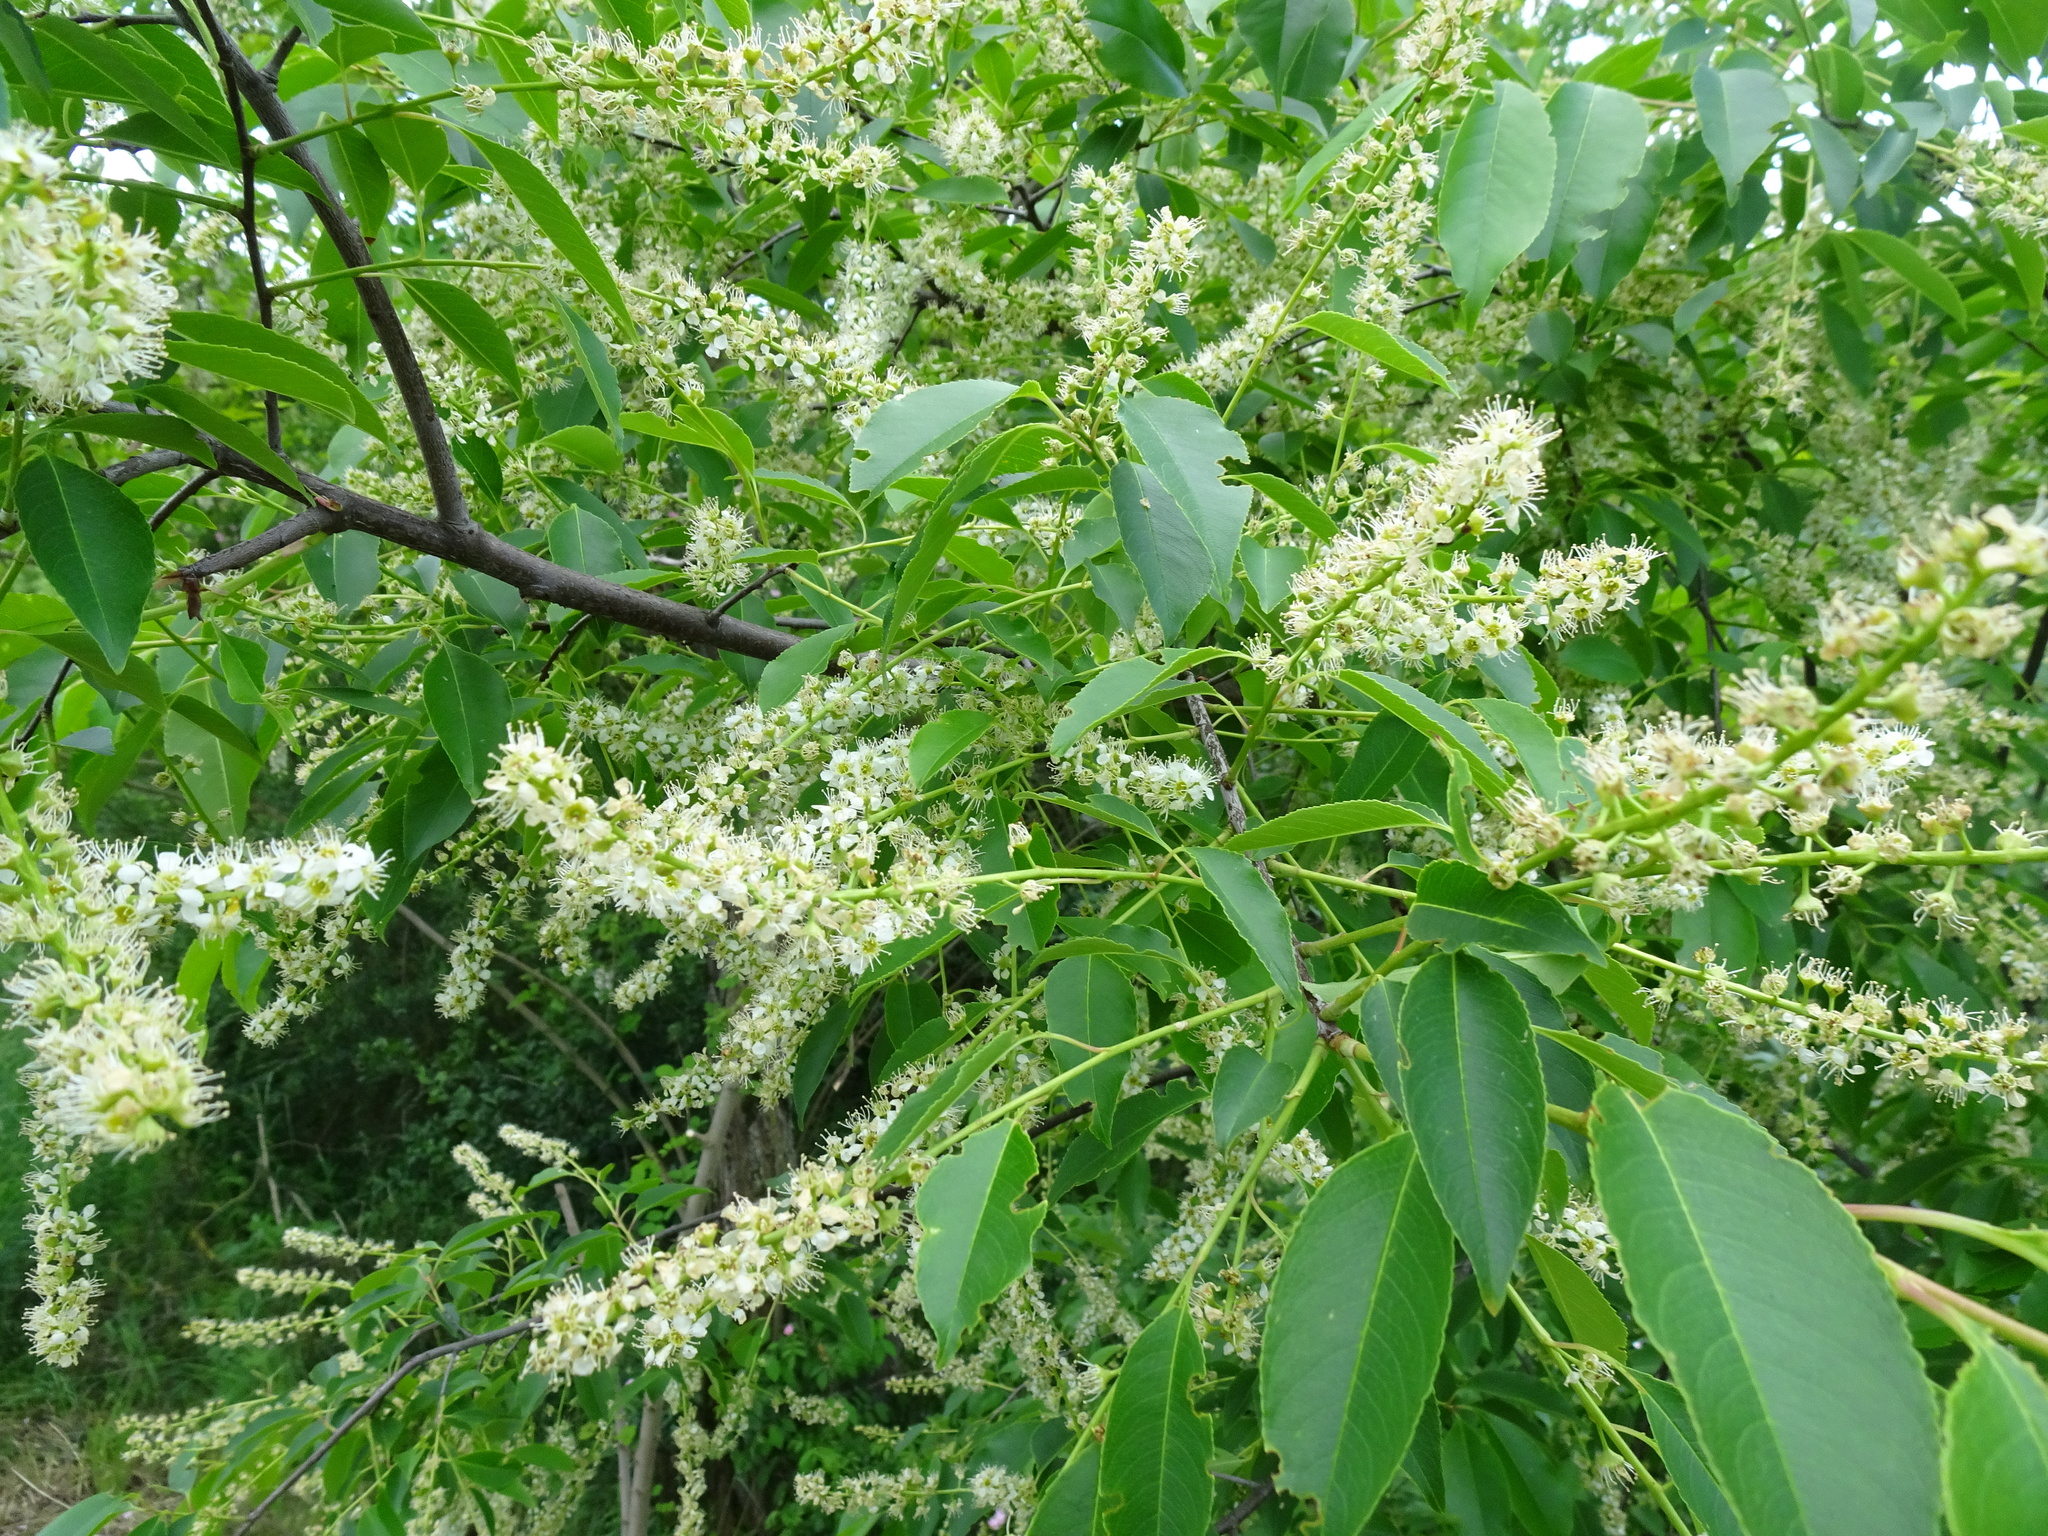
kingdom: Plantae
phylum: Tracheophyta
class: Magnoliopsida
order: Rosales
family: Rosaceae
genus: Prunus
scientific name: Prunus serotina
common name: Black cherry
